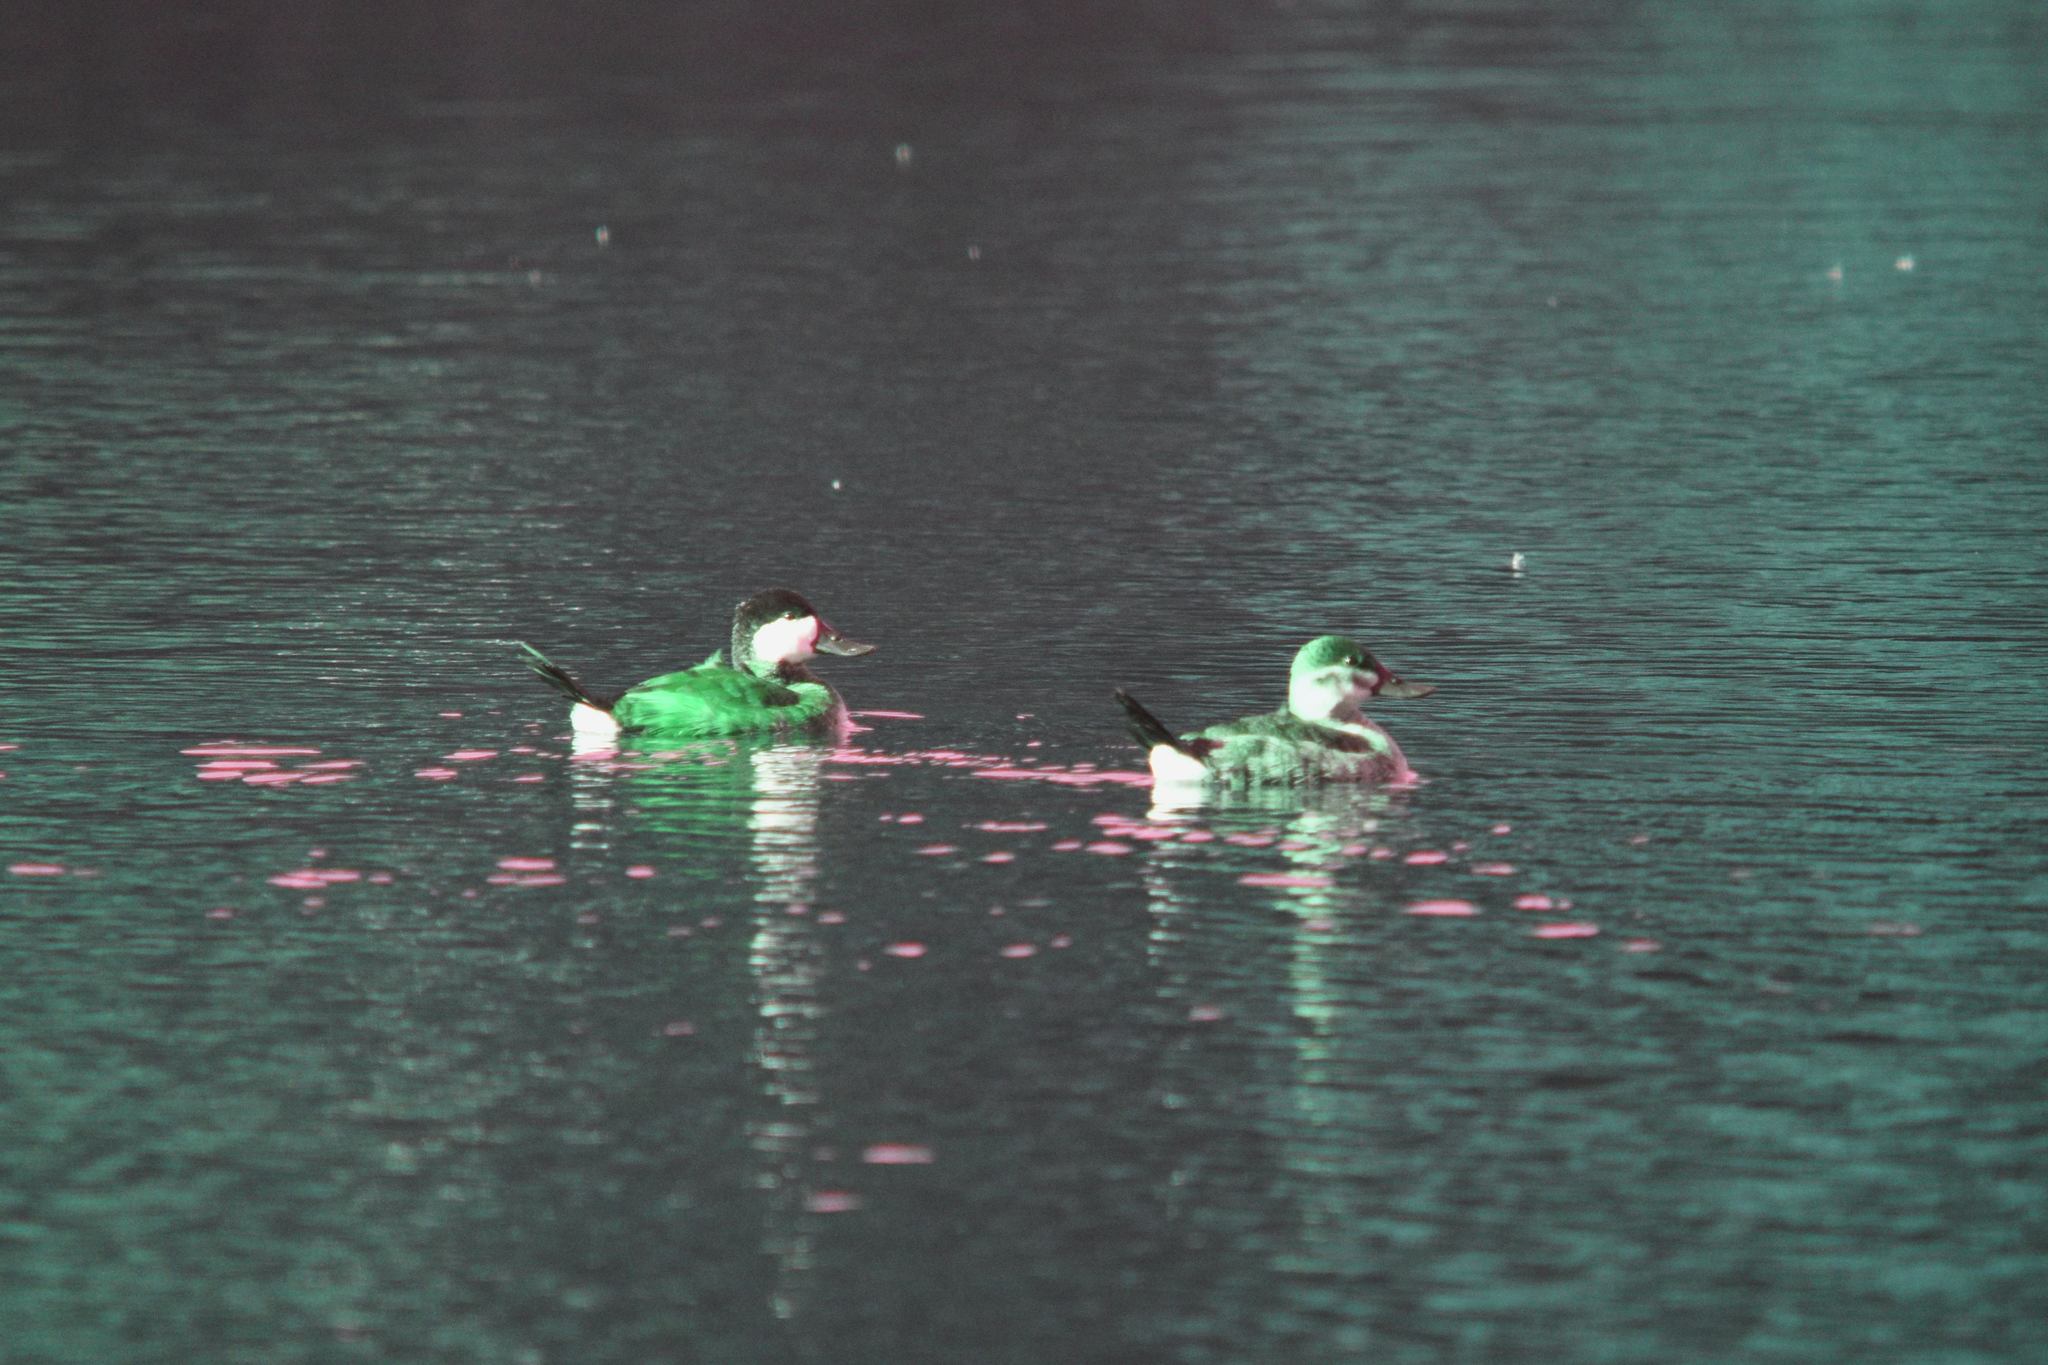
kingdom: Animalia
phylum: Chordata
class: Aves
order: Anseriformes
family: Anatidae
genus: Oxyura
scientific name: Oxyura jamaicensis
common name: Ruddy duck
